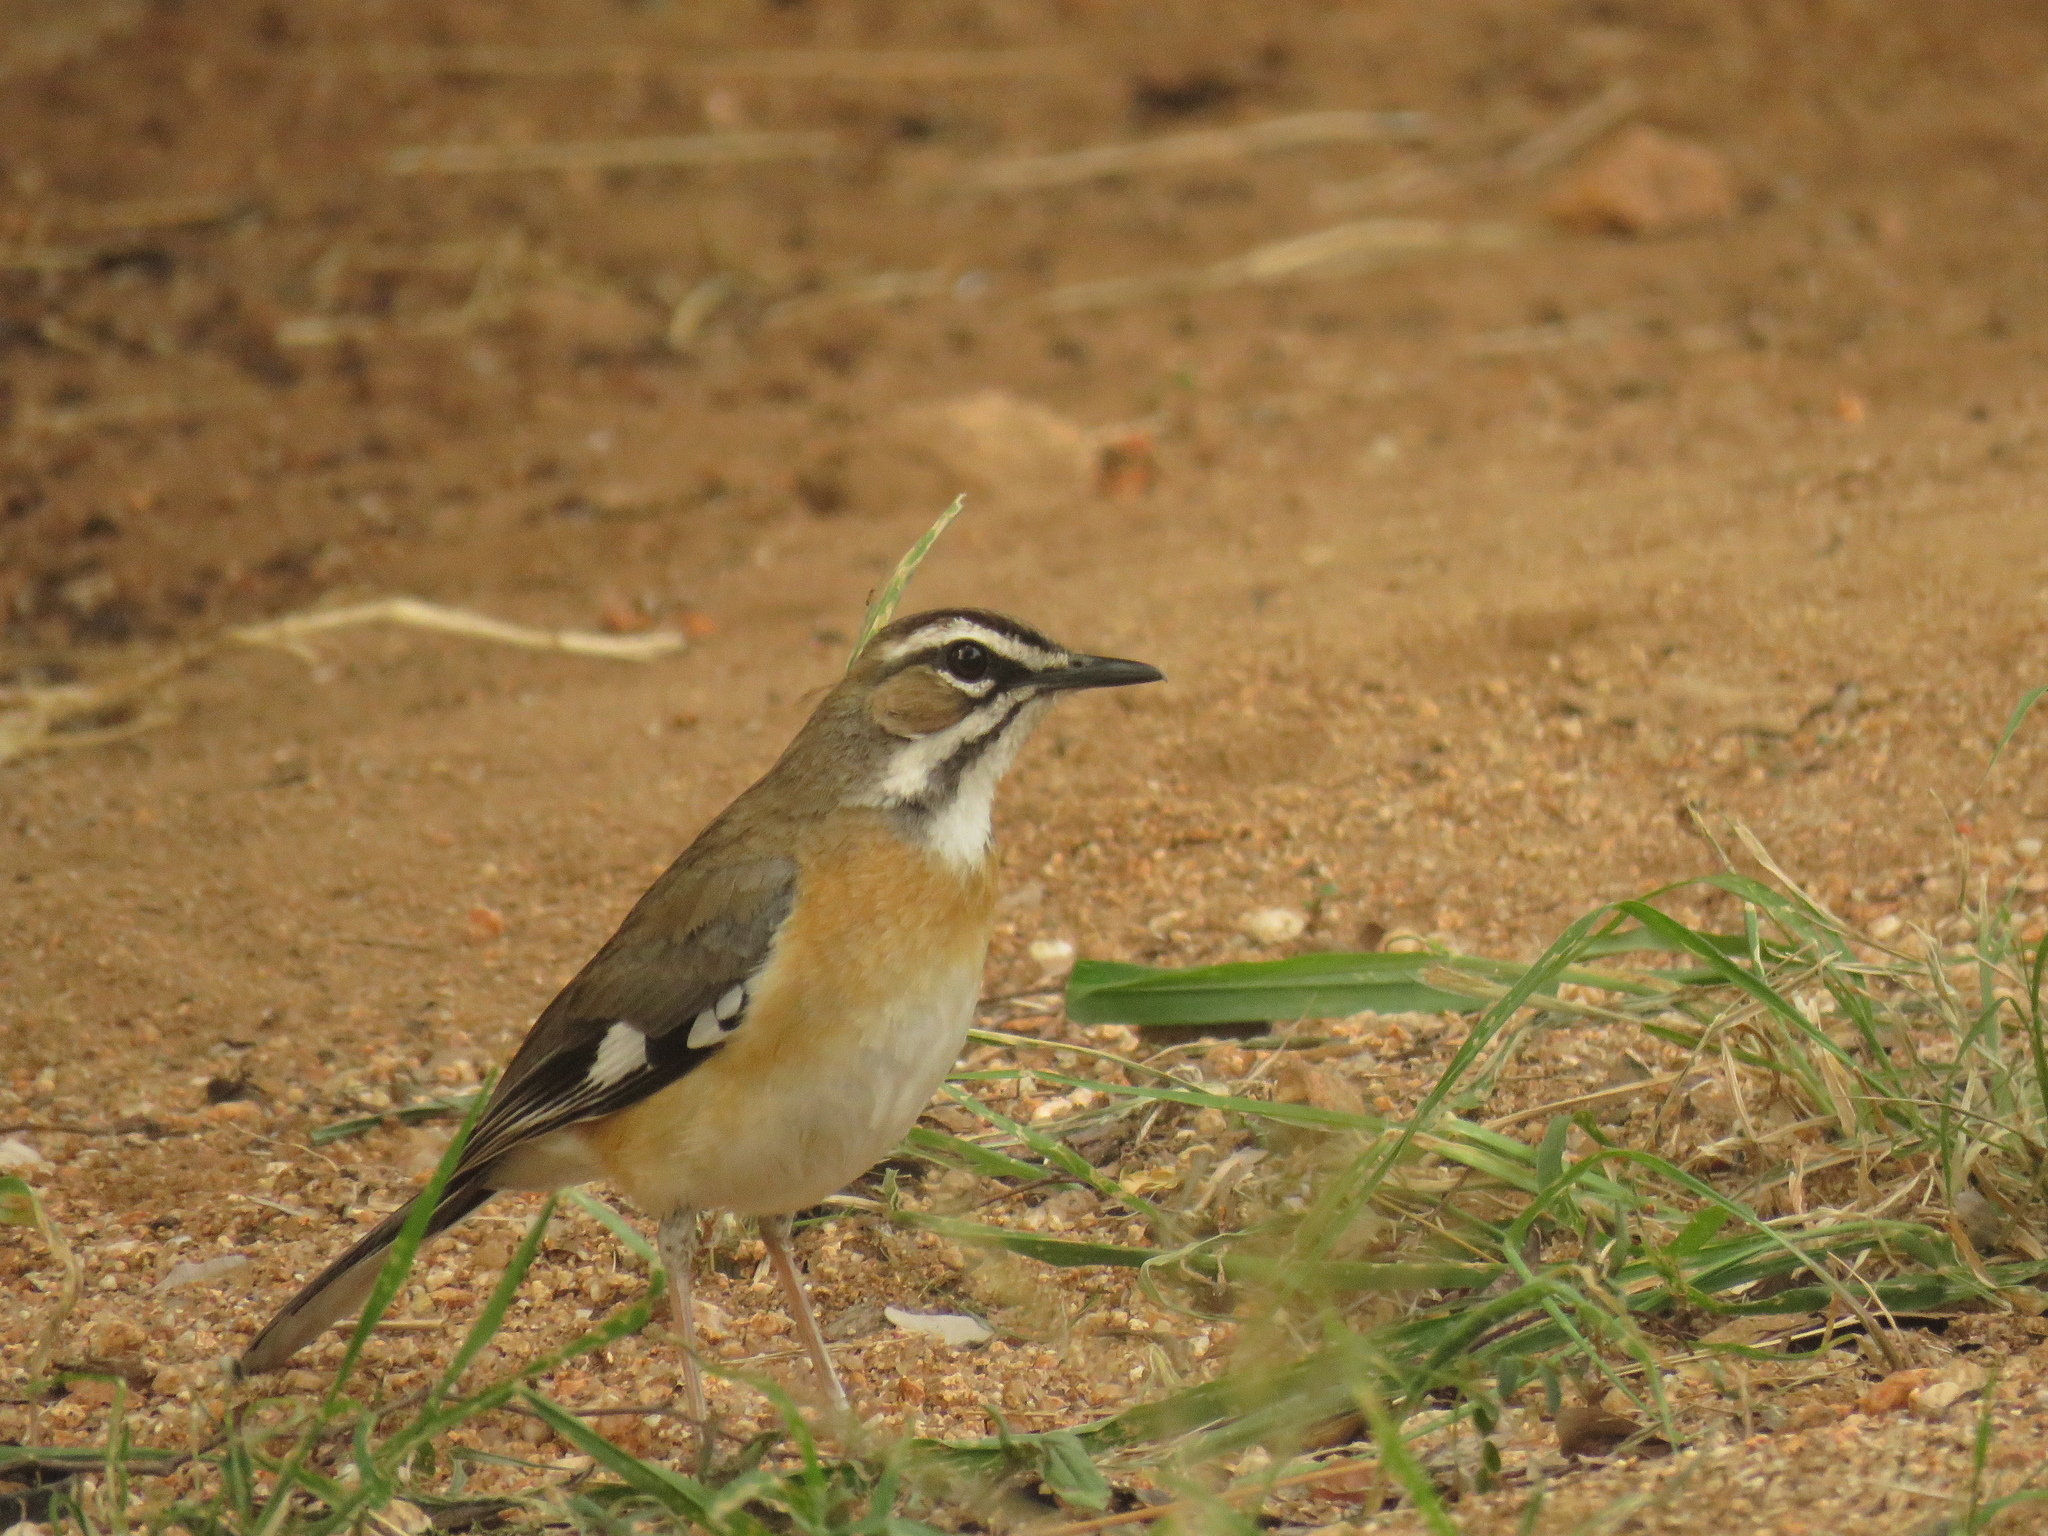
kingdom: Animalia
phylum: Chordata
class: Aves
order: Passeriformes
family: Muscicapidae
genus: Erythropygia
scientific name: Erythropygia quadrivirgata
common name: Bearded scrub robin
